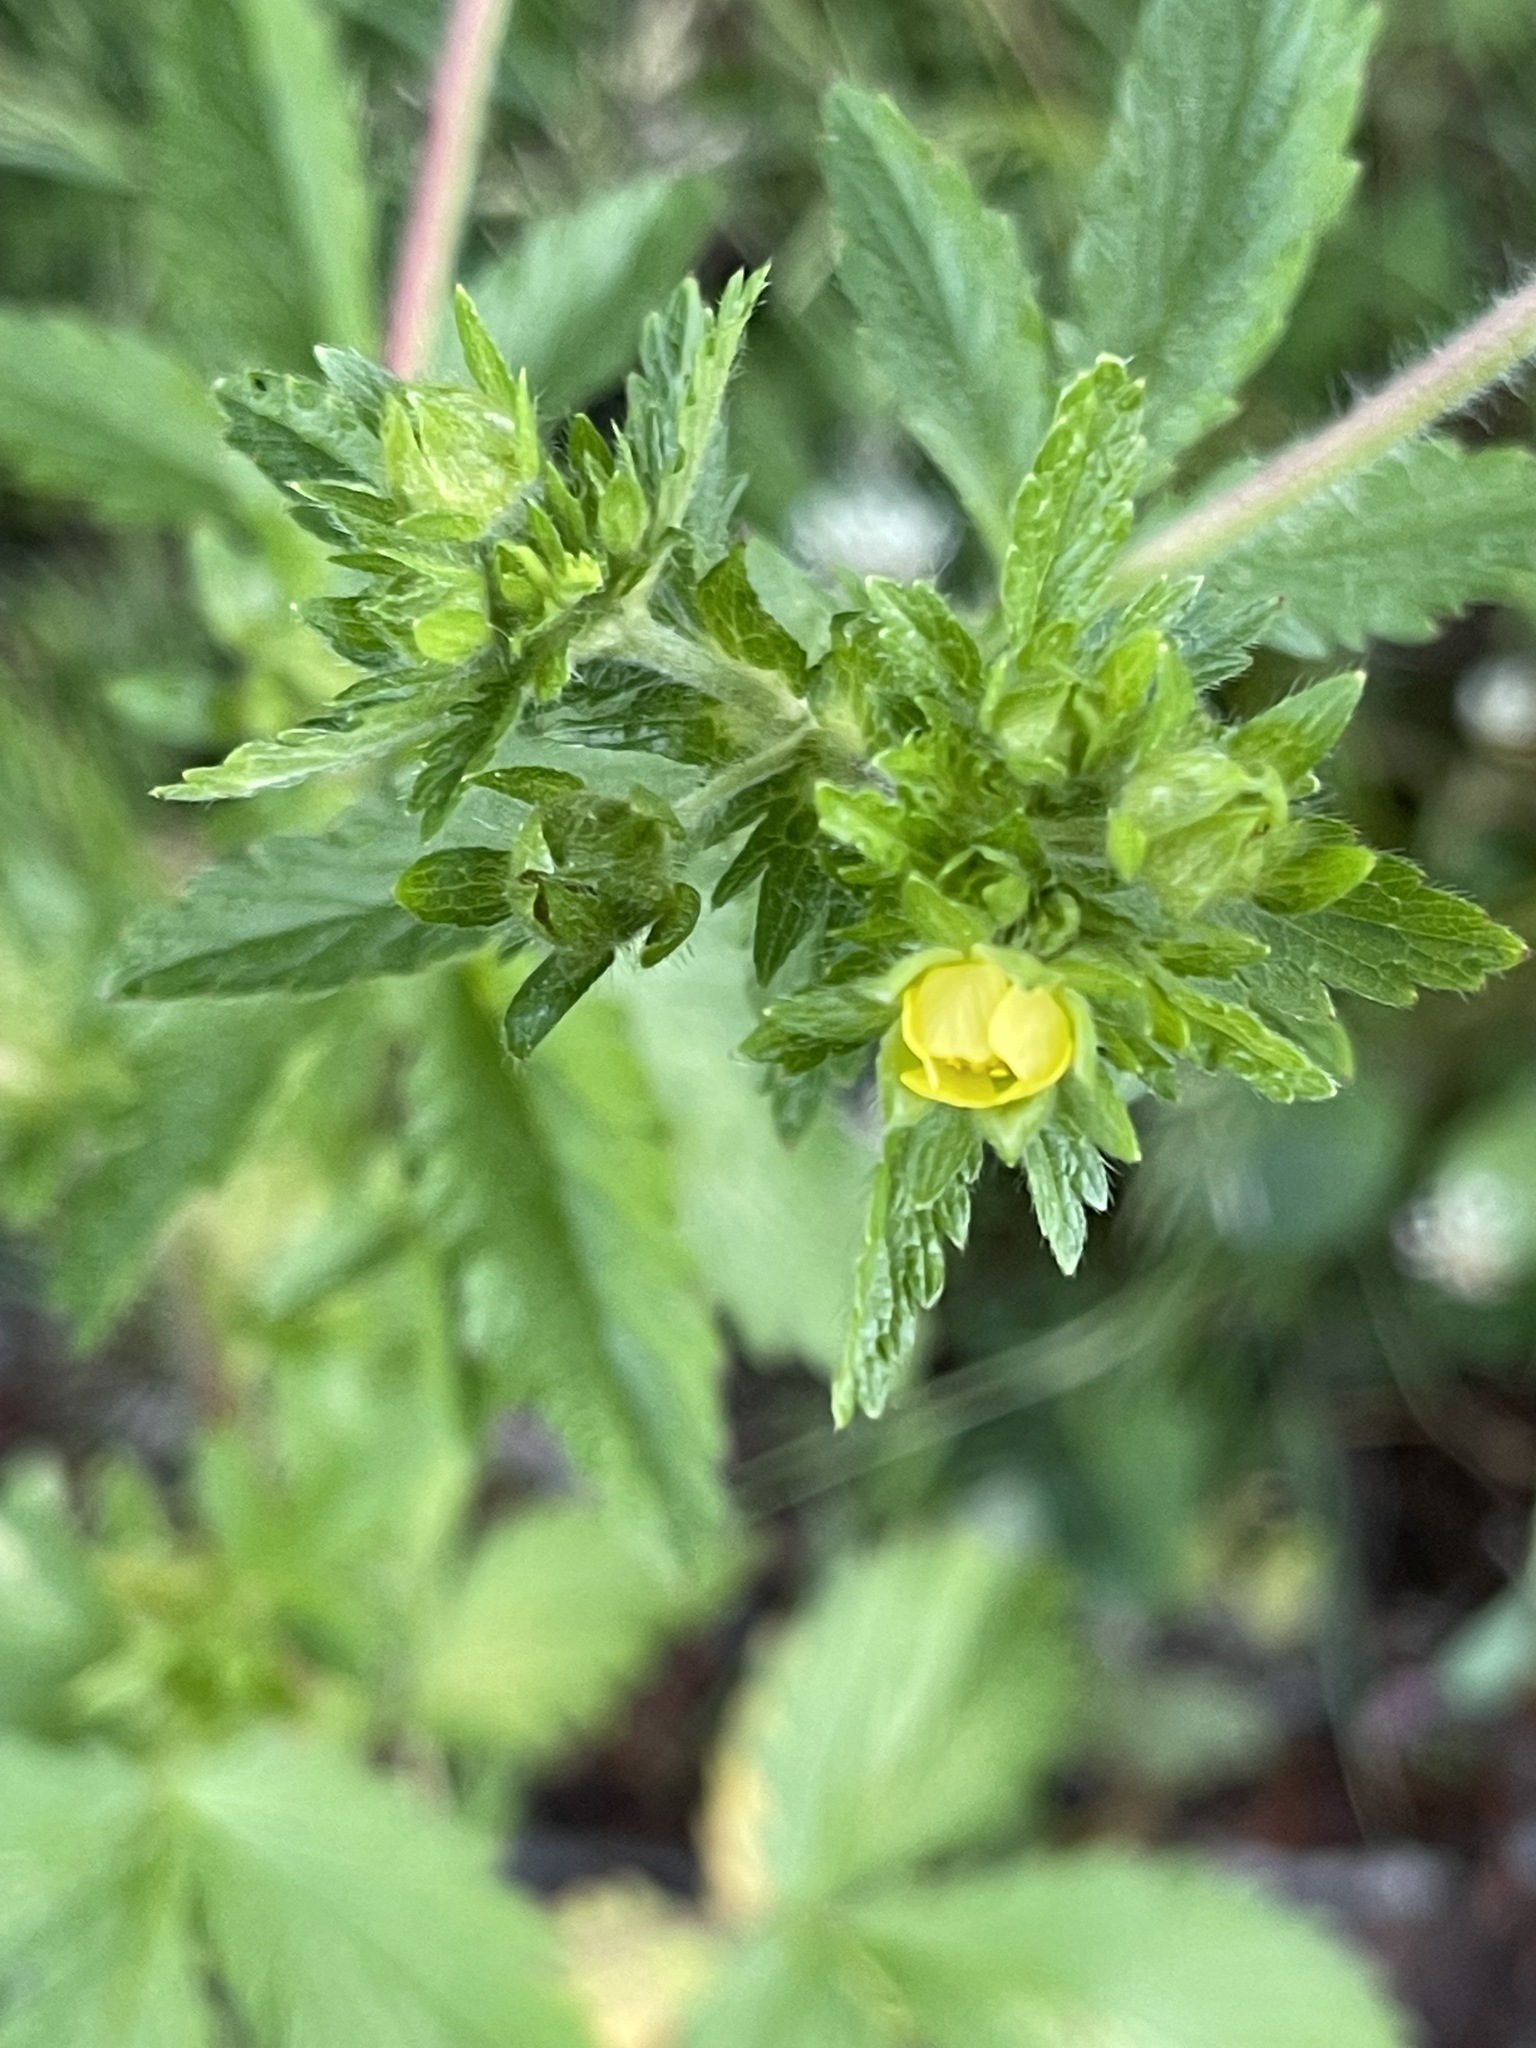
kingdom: Plantae
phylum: Tracheophyta
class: Magnoliopsida
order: Rosales
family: Rosaceae
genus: Potentilla
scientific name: Potentilla norvegica
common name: Ternate-leaved cinquefoil
